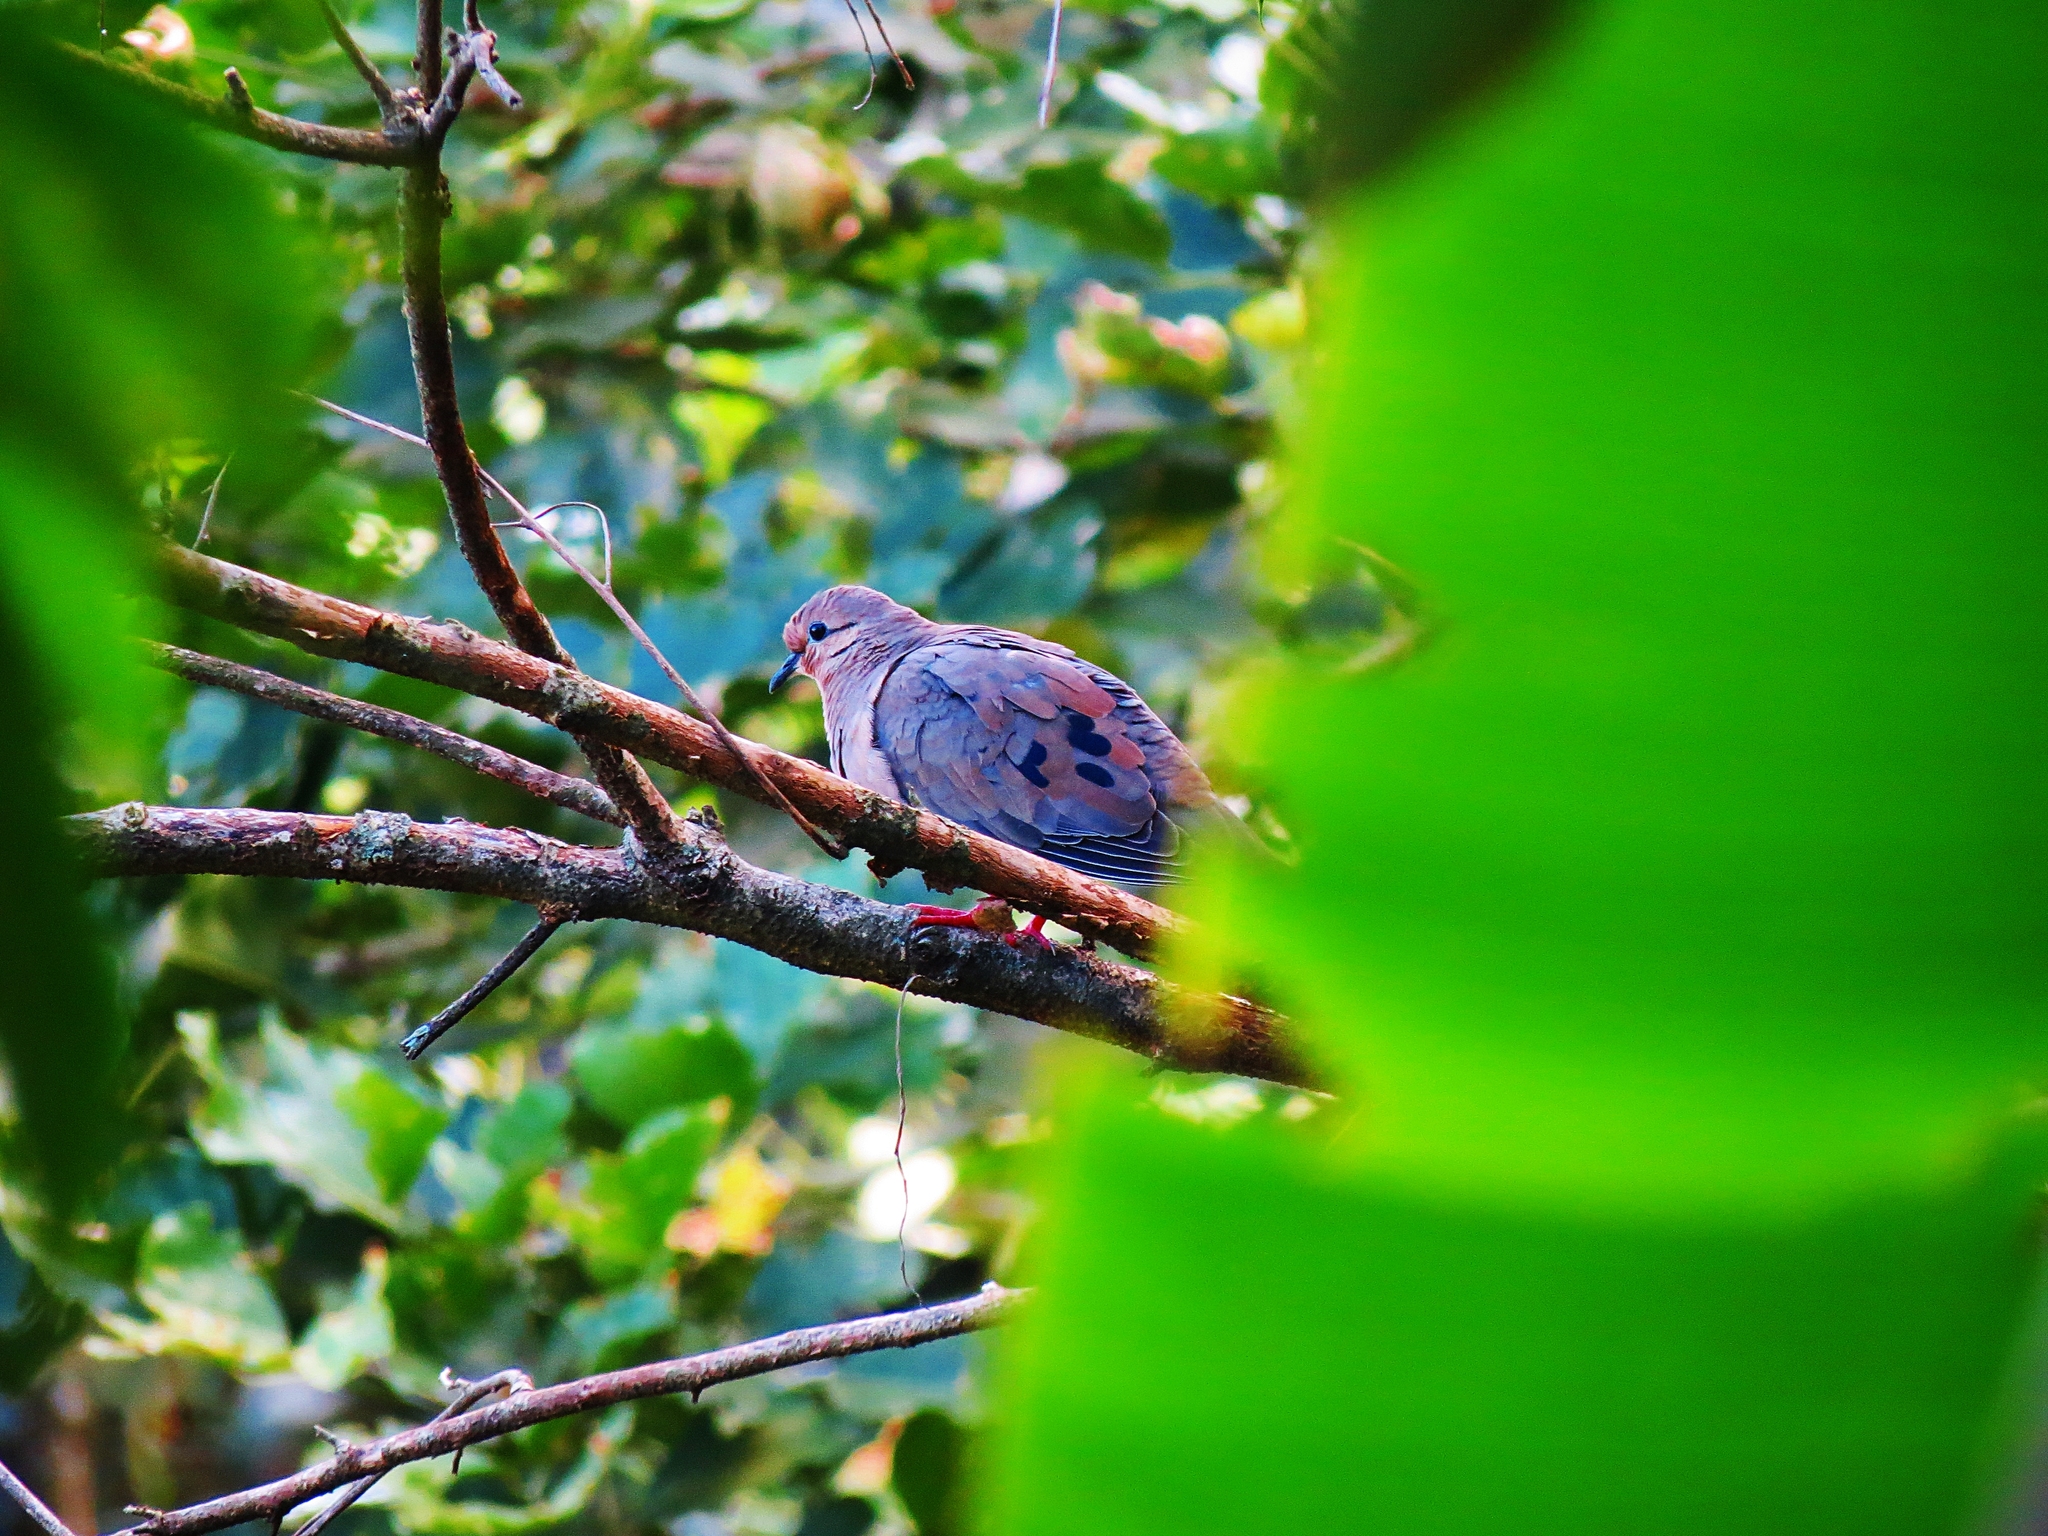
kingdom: Animalia
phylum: Chordata
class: Aves
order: Columbiformes
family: Columbidae
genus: Zenaida
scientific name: Zenaida auriculata
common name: Eared dove
